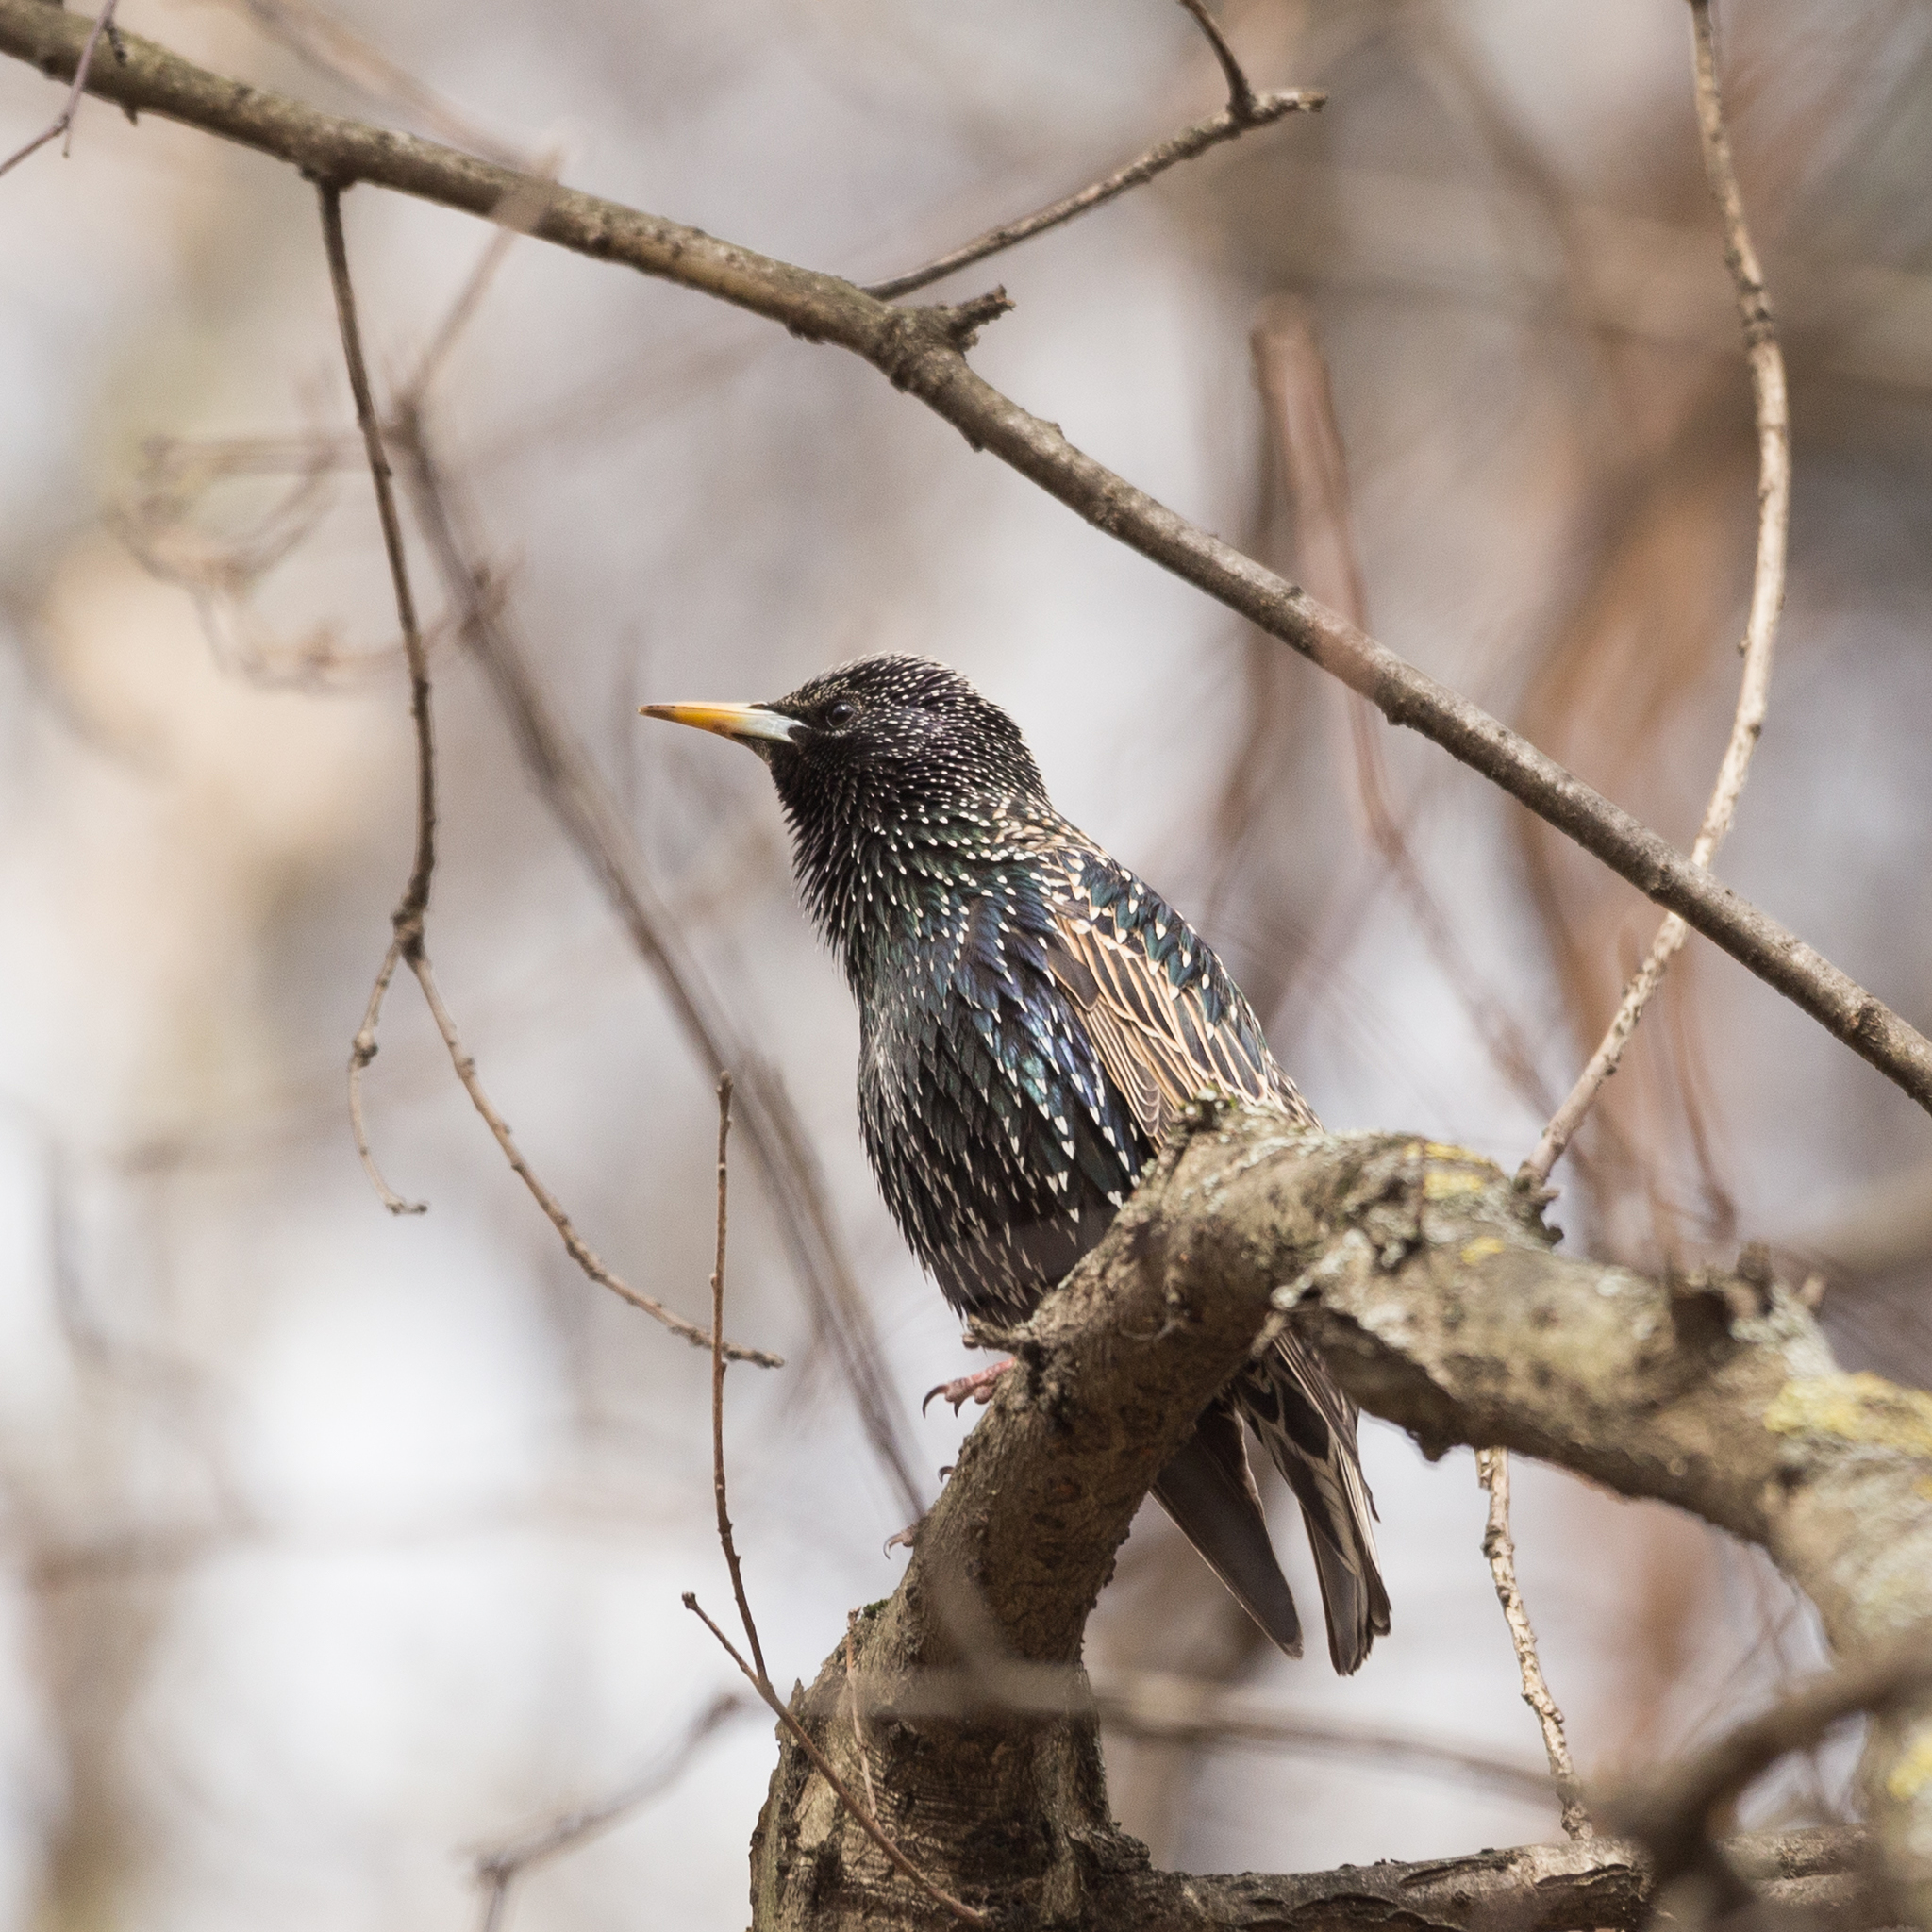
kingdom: Animalia
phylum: Chordata
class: Aves
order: Passeriformes
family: Sturnidae
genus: Sturnus
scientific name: Sturnus vulgaris
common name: Common starling
